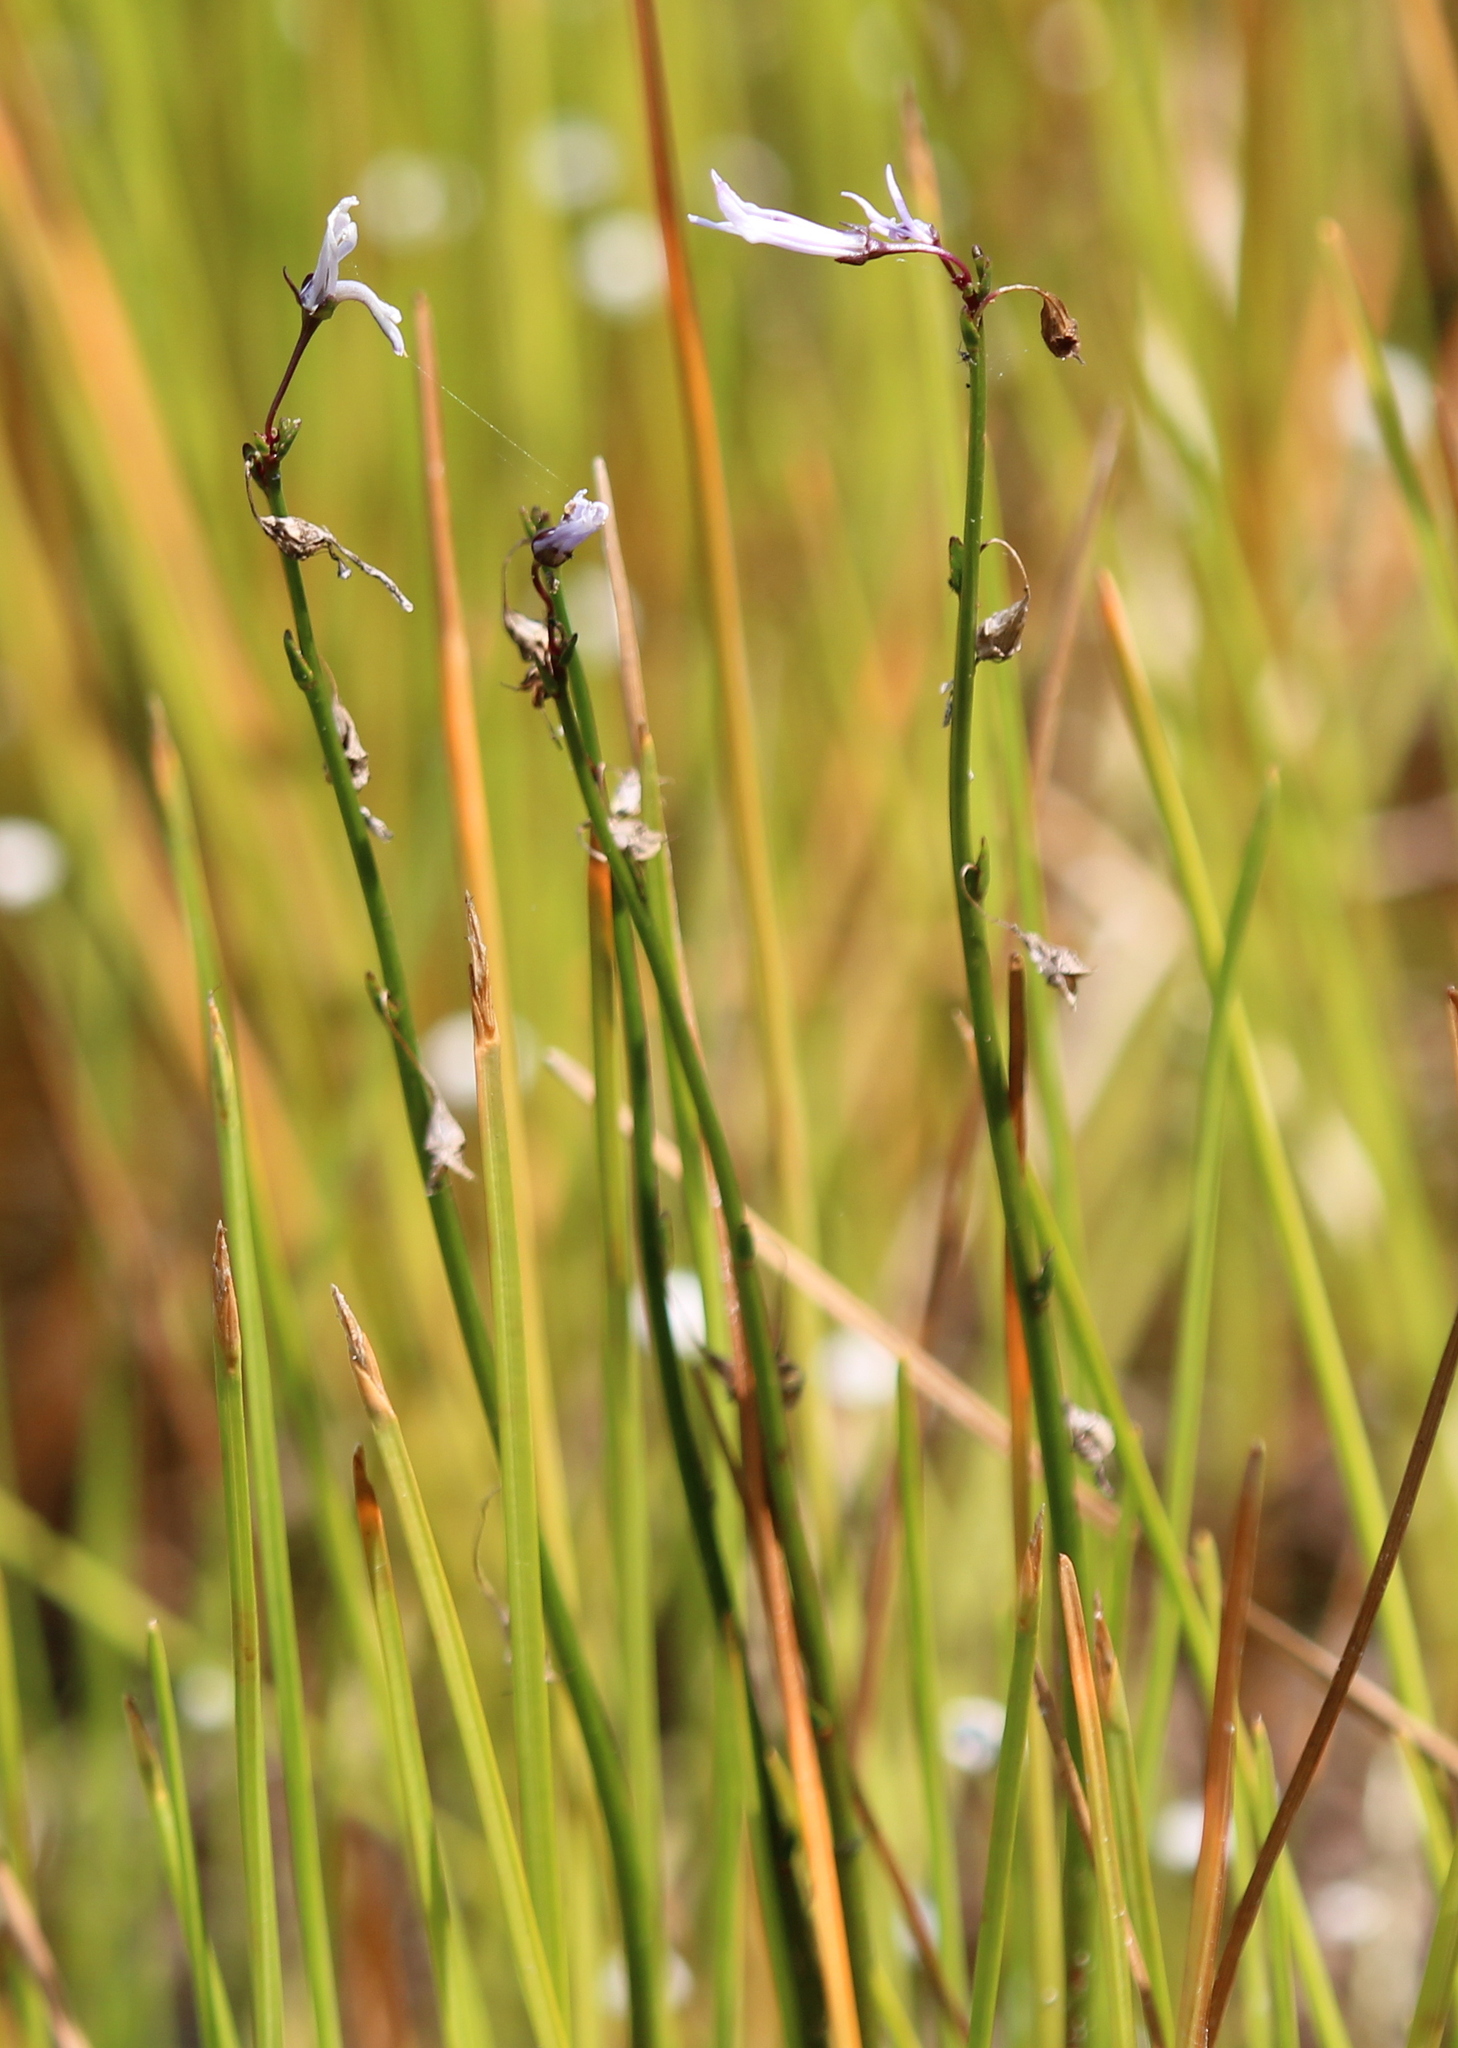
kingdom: Plantae
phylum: Tracheophyta
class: Magnoliopsida
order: Asterales
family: Campanulaceae
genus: Lobelia
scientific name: Lobelia dortmanna
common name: Water lobelia
